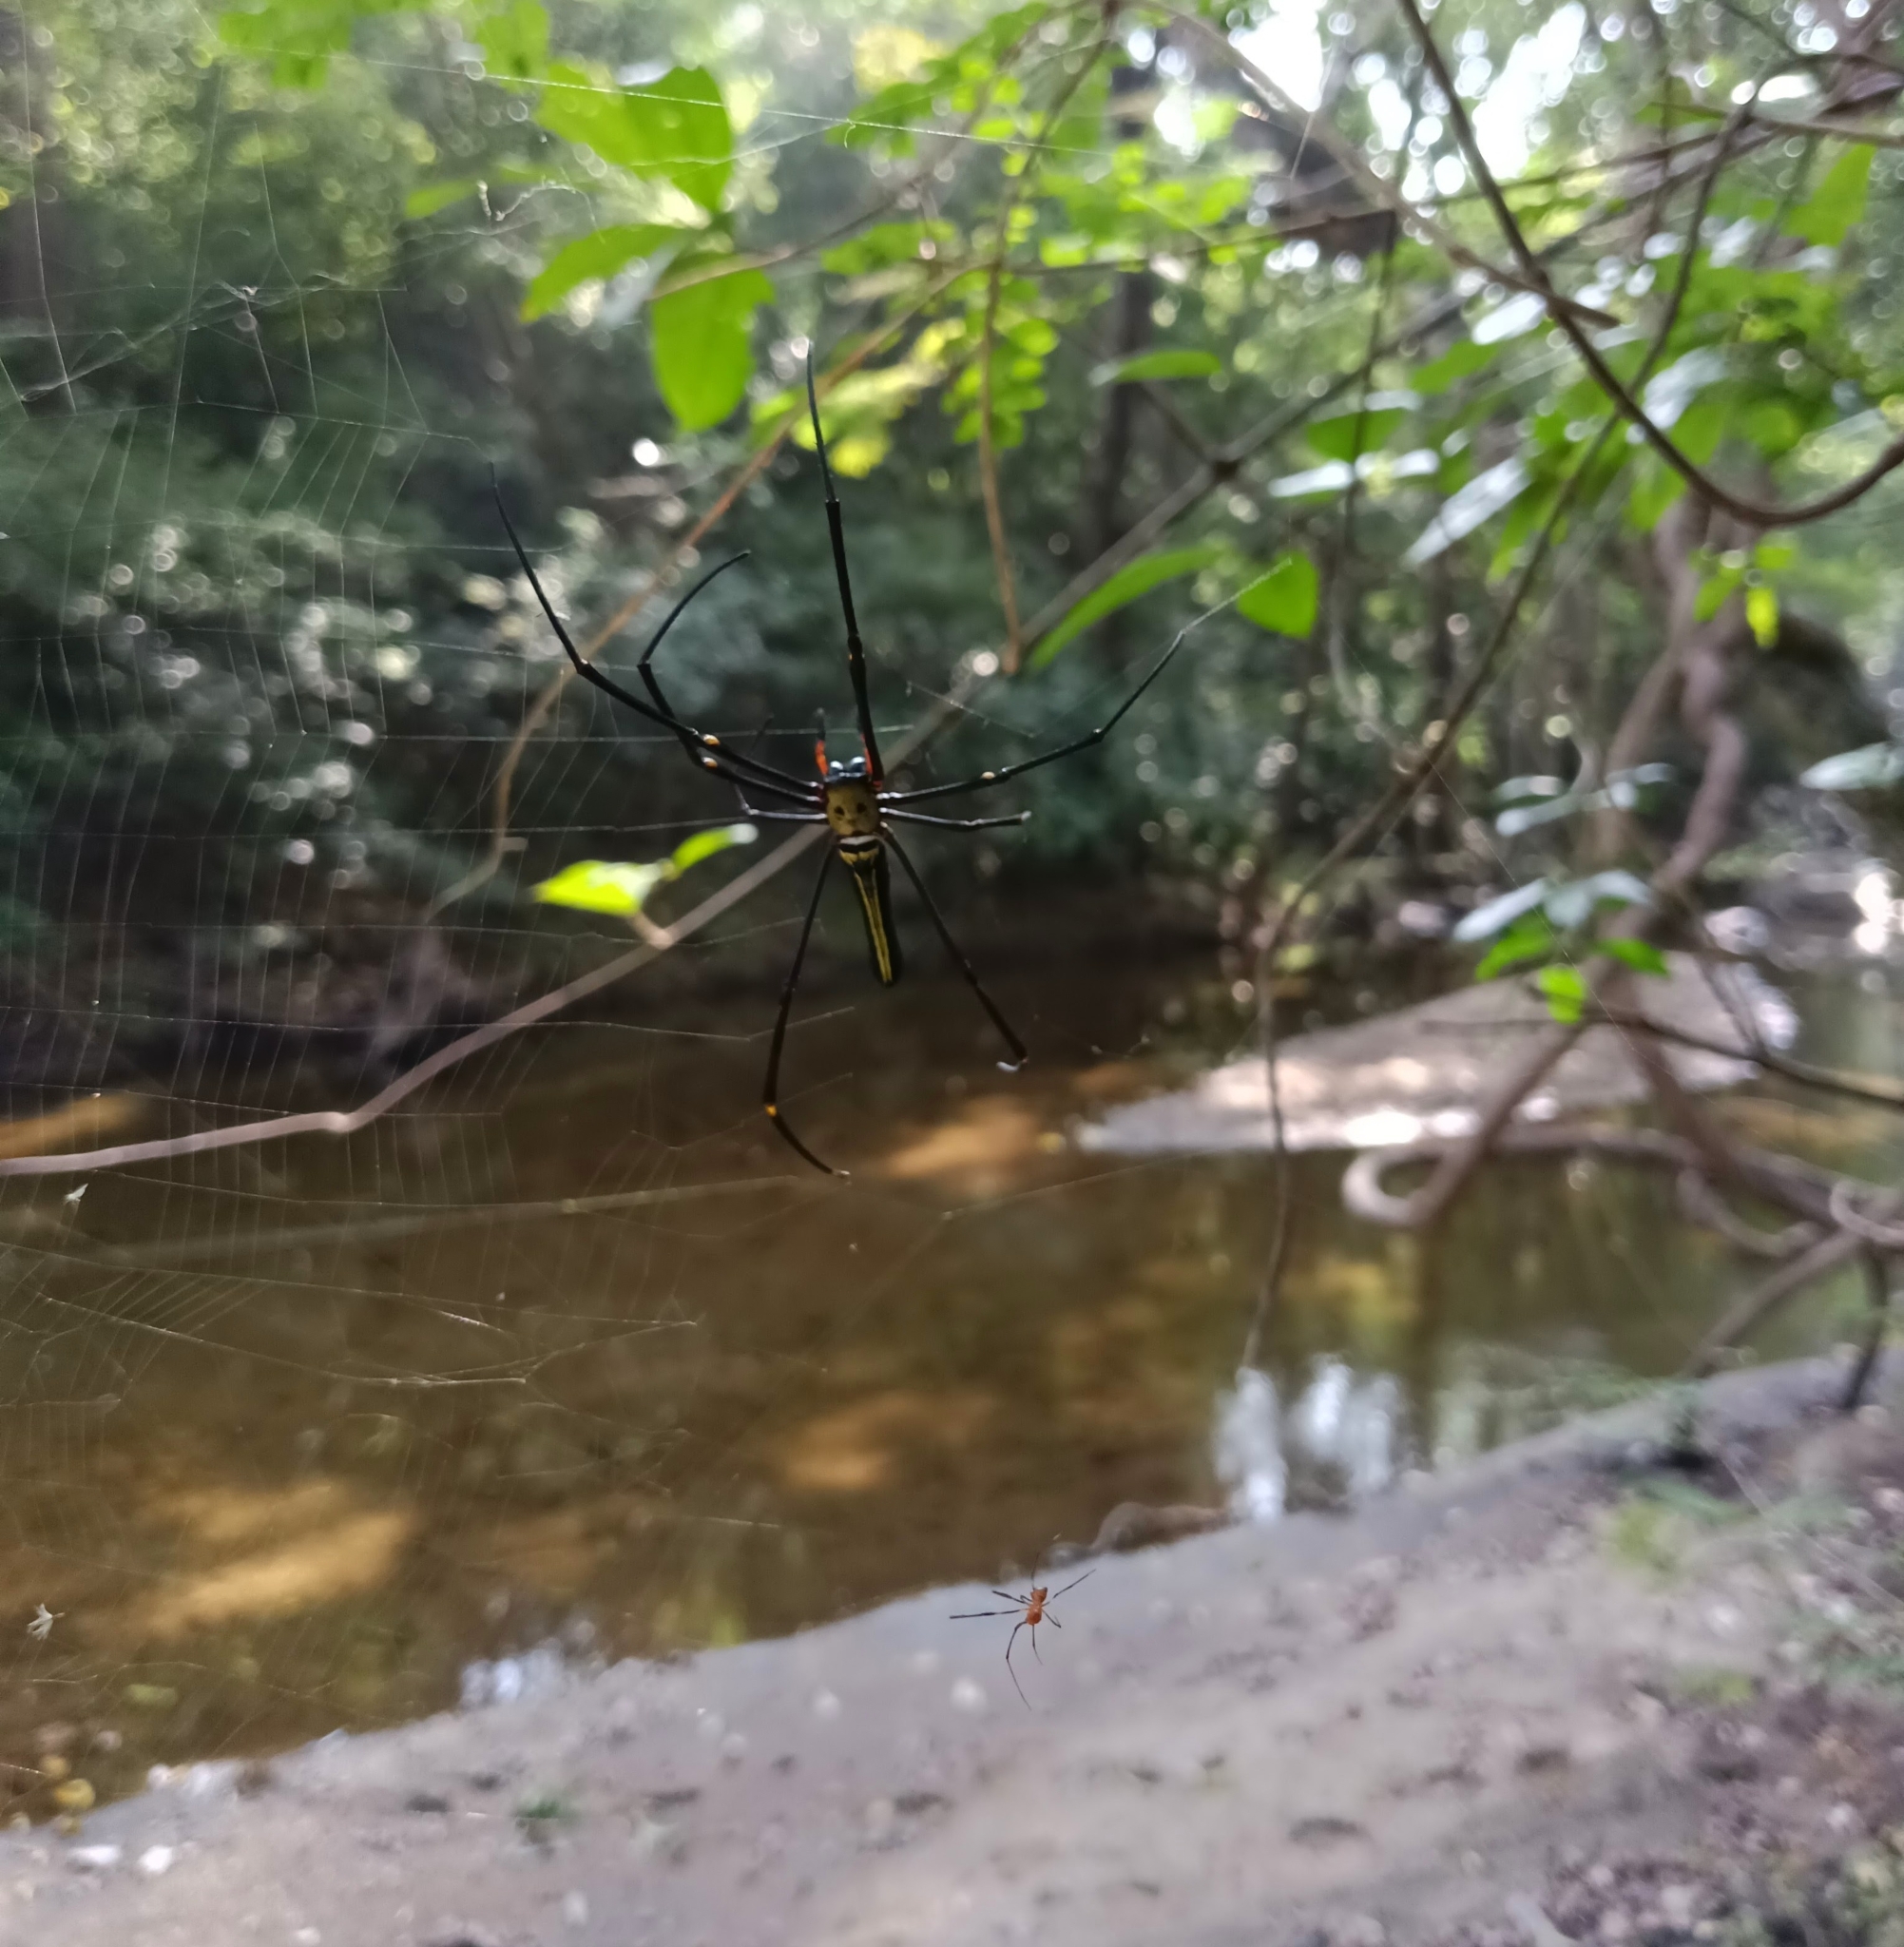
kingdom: Animalia
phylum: Arthropoda
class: Arachnida
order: Araneae
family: Araneidae
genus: Nephila
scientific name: Nephila pilipes
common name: Giant golden orb weaver
